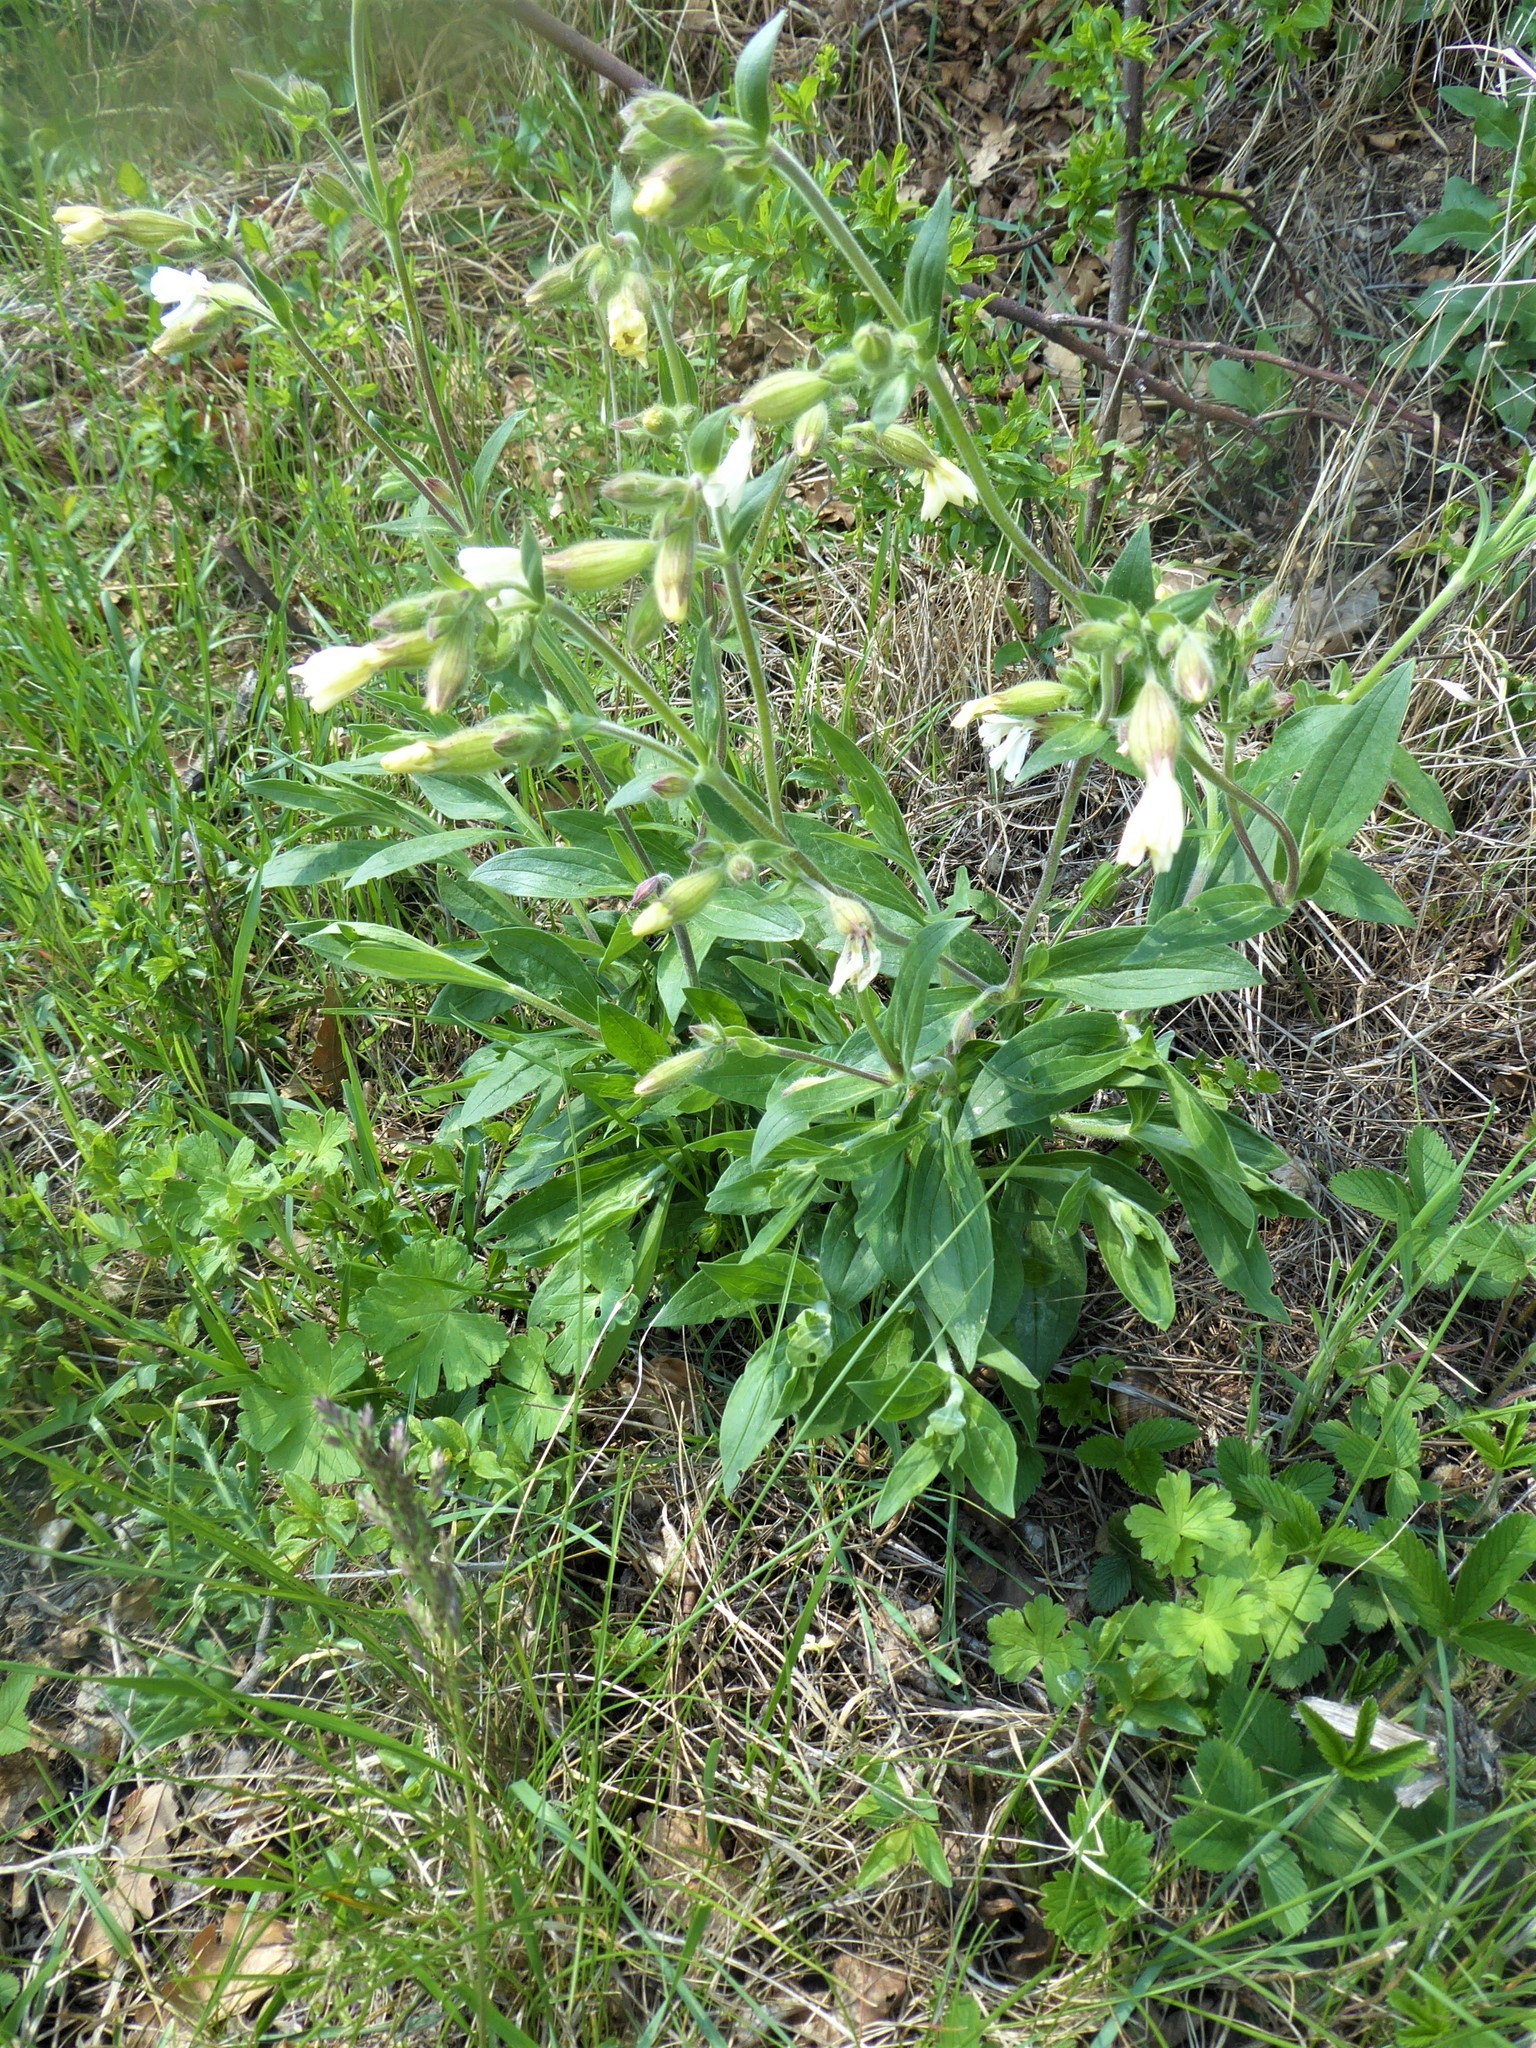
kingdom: Plantae
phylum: Tracheophyta
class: Magnoliopsida
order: Caryophyllales
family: Caryophyllaceae
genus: Silene
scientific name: Silene latifolia
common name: White campion
